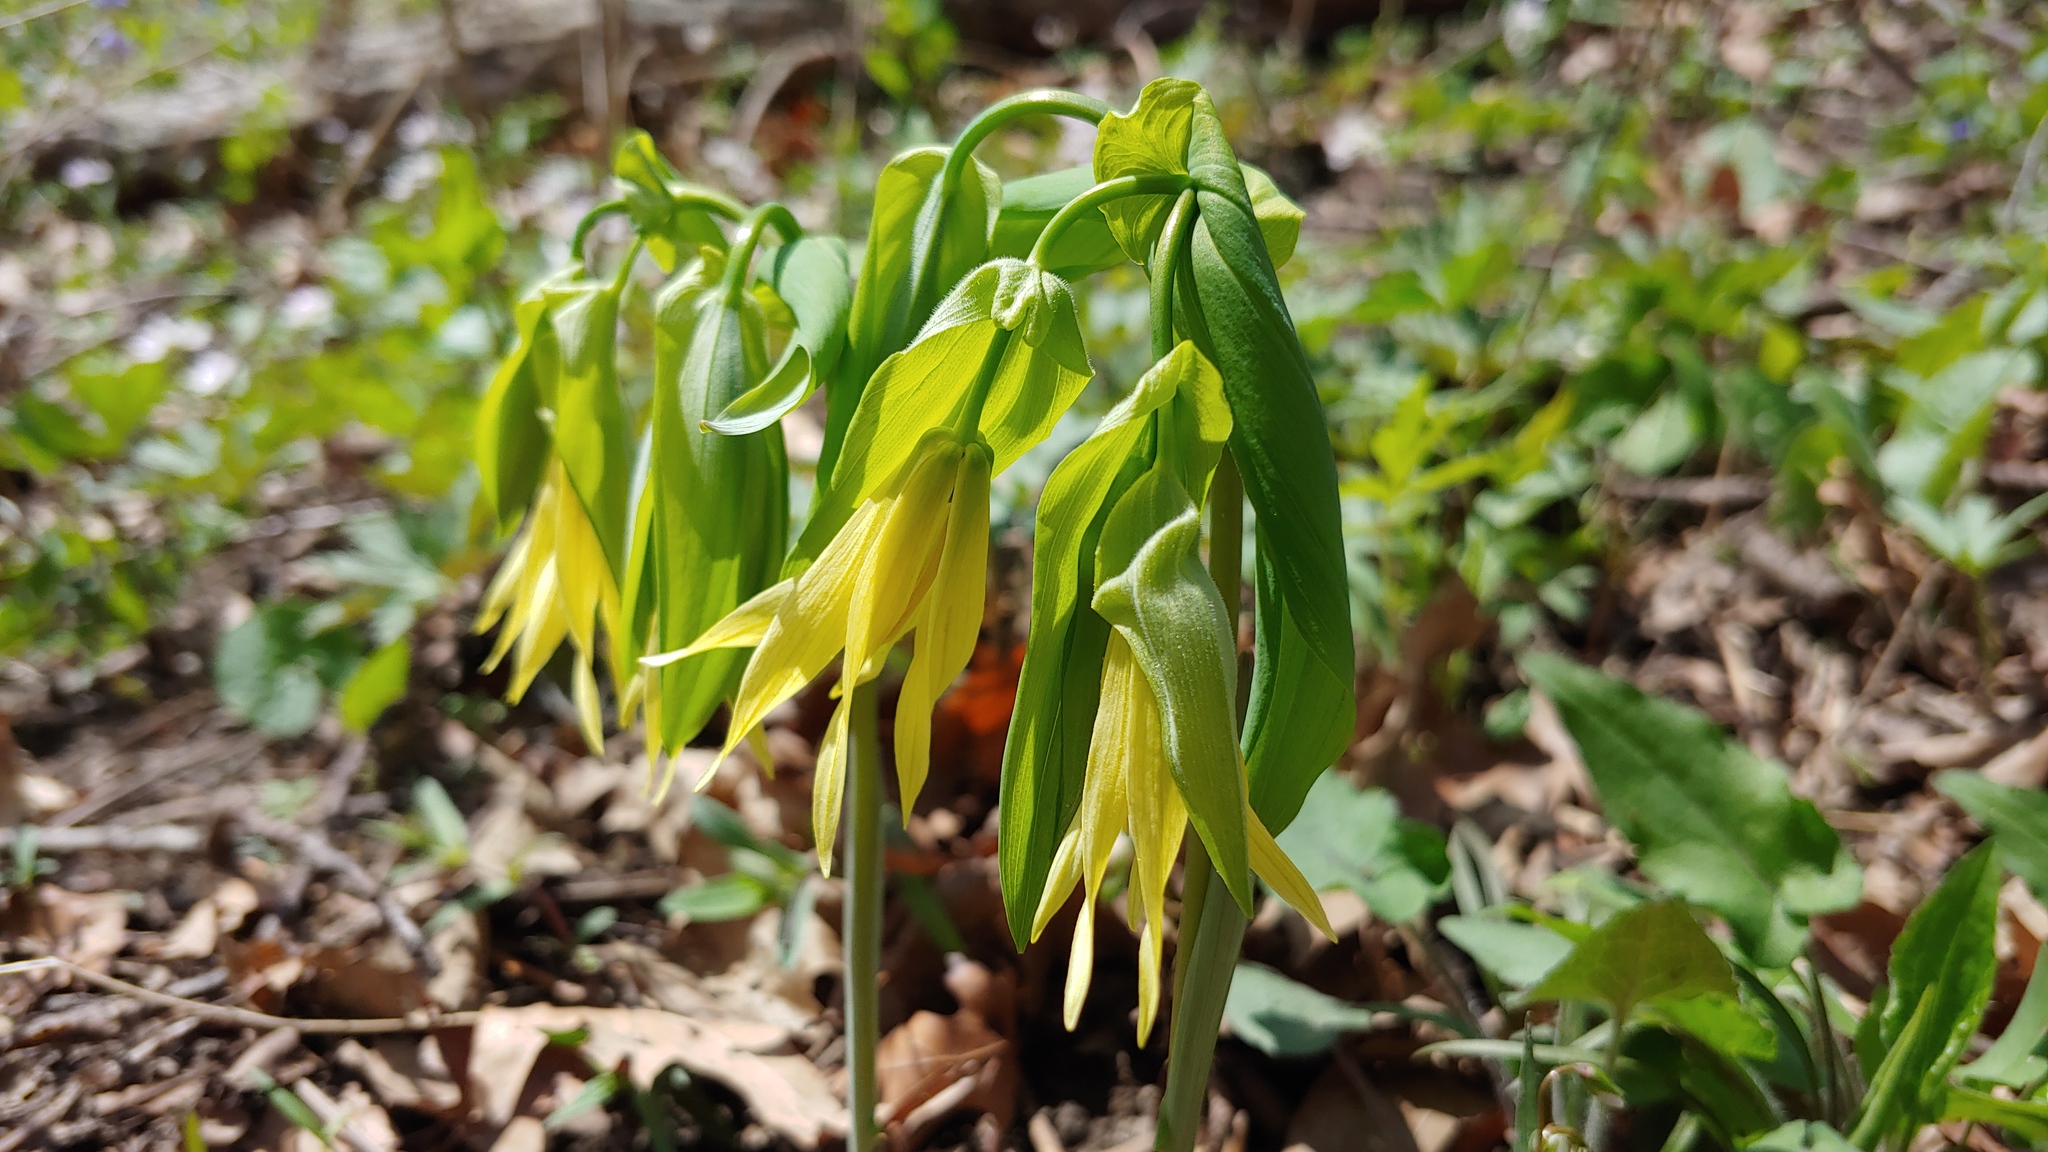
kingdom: Plantae
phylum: Tracheophyta
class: Liliopsida
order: Liliales
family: Colchicaceae
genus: Uvularia
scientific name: Uvularia grandiflora
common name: Bellwort
